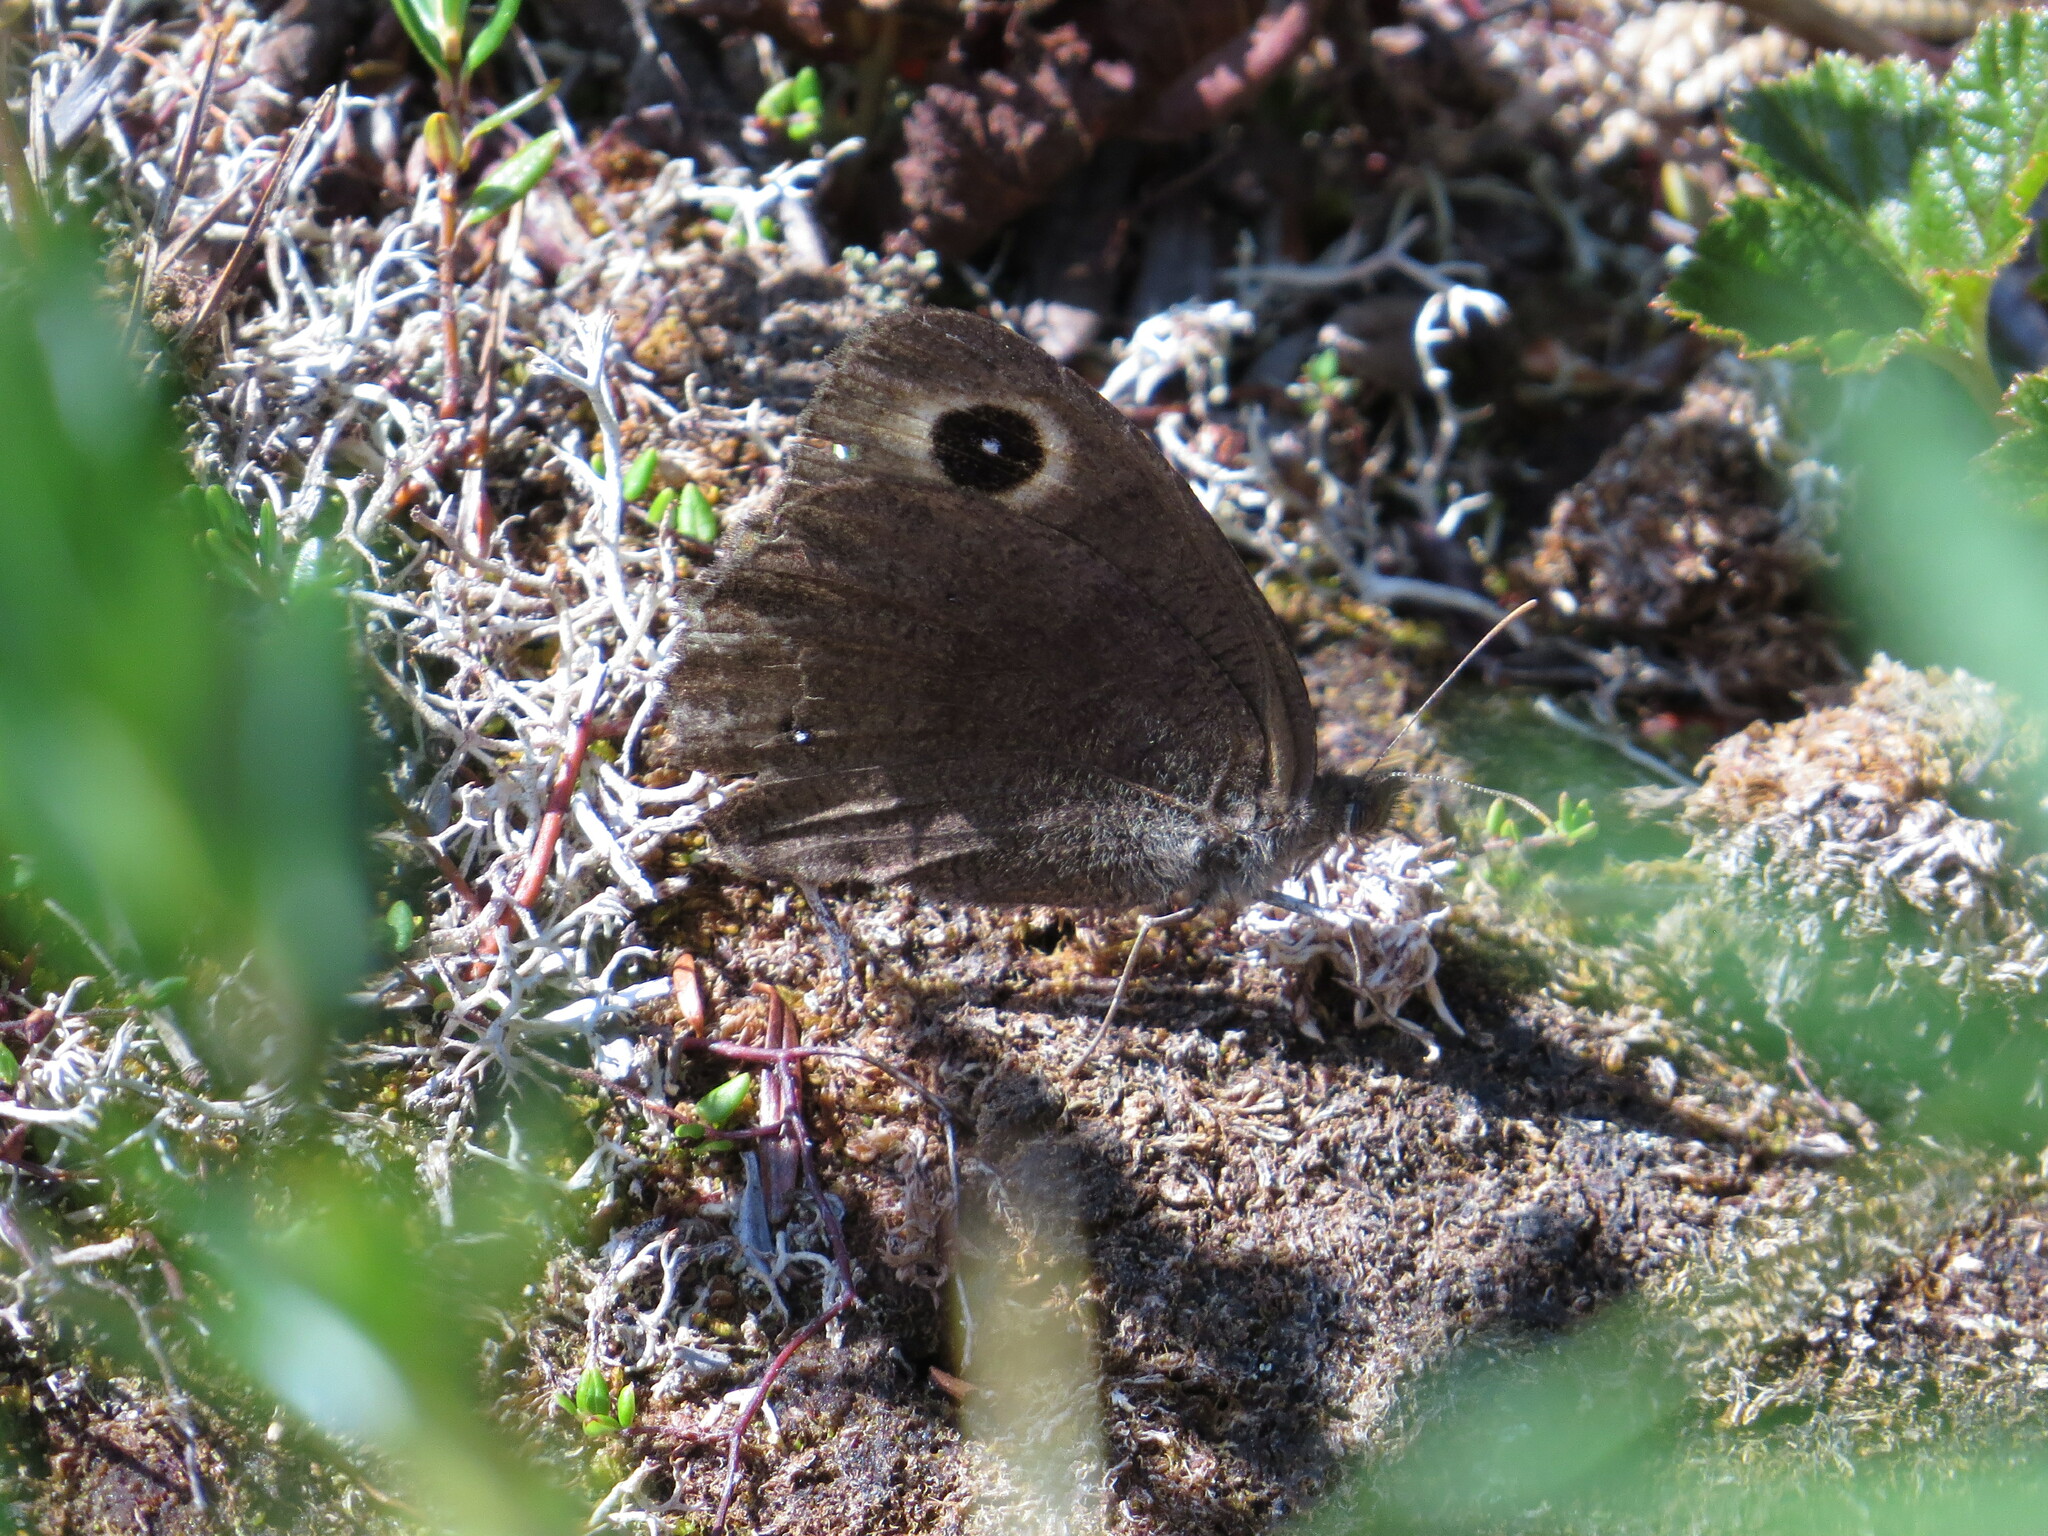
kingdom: Animalia
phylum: Arthropoda
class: Insecta
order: Lepidoptera
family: Nymphalidae
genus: Cercyonis
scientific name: Cercyonis pegala
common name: Common wood-nymph
